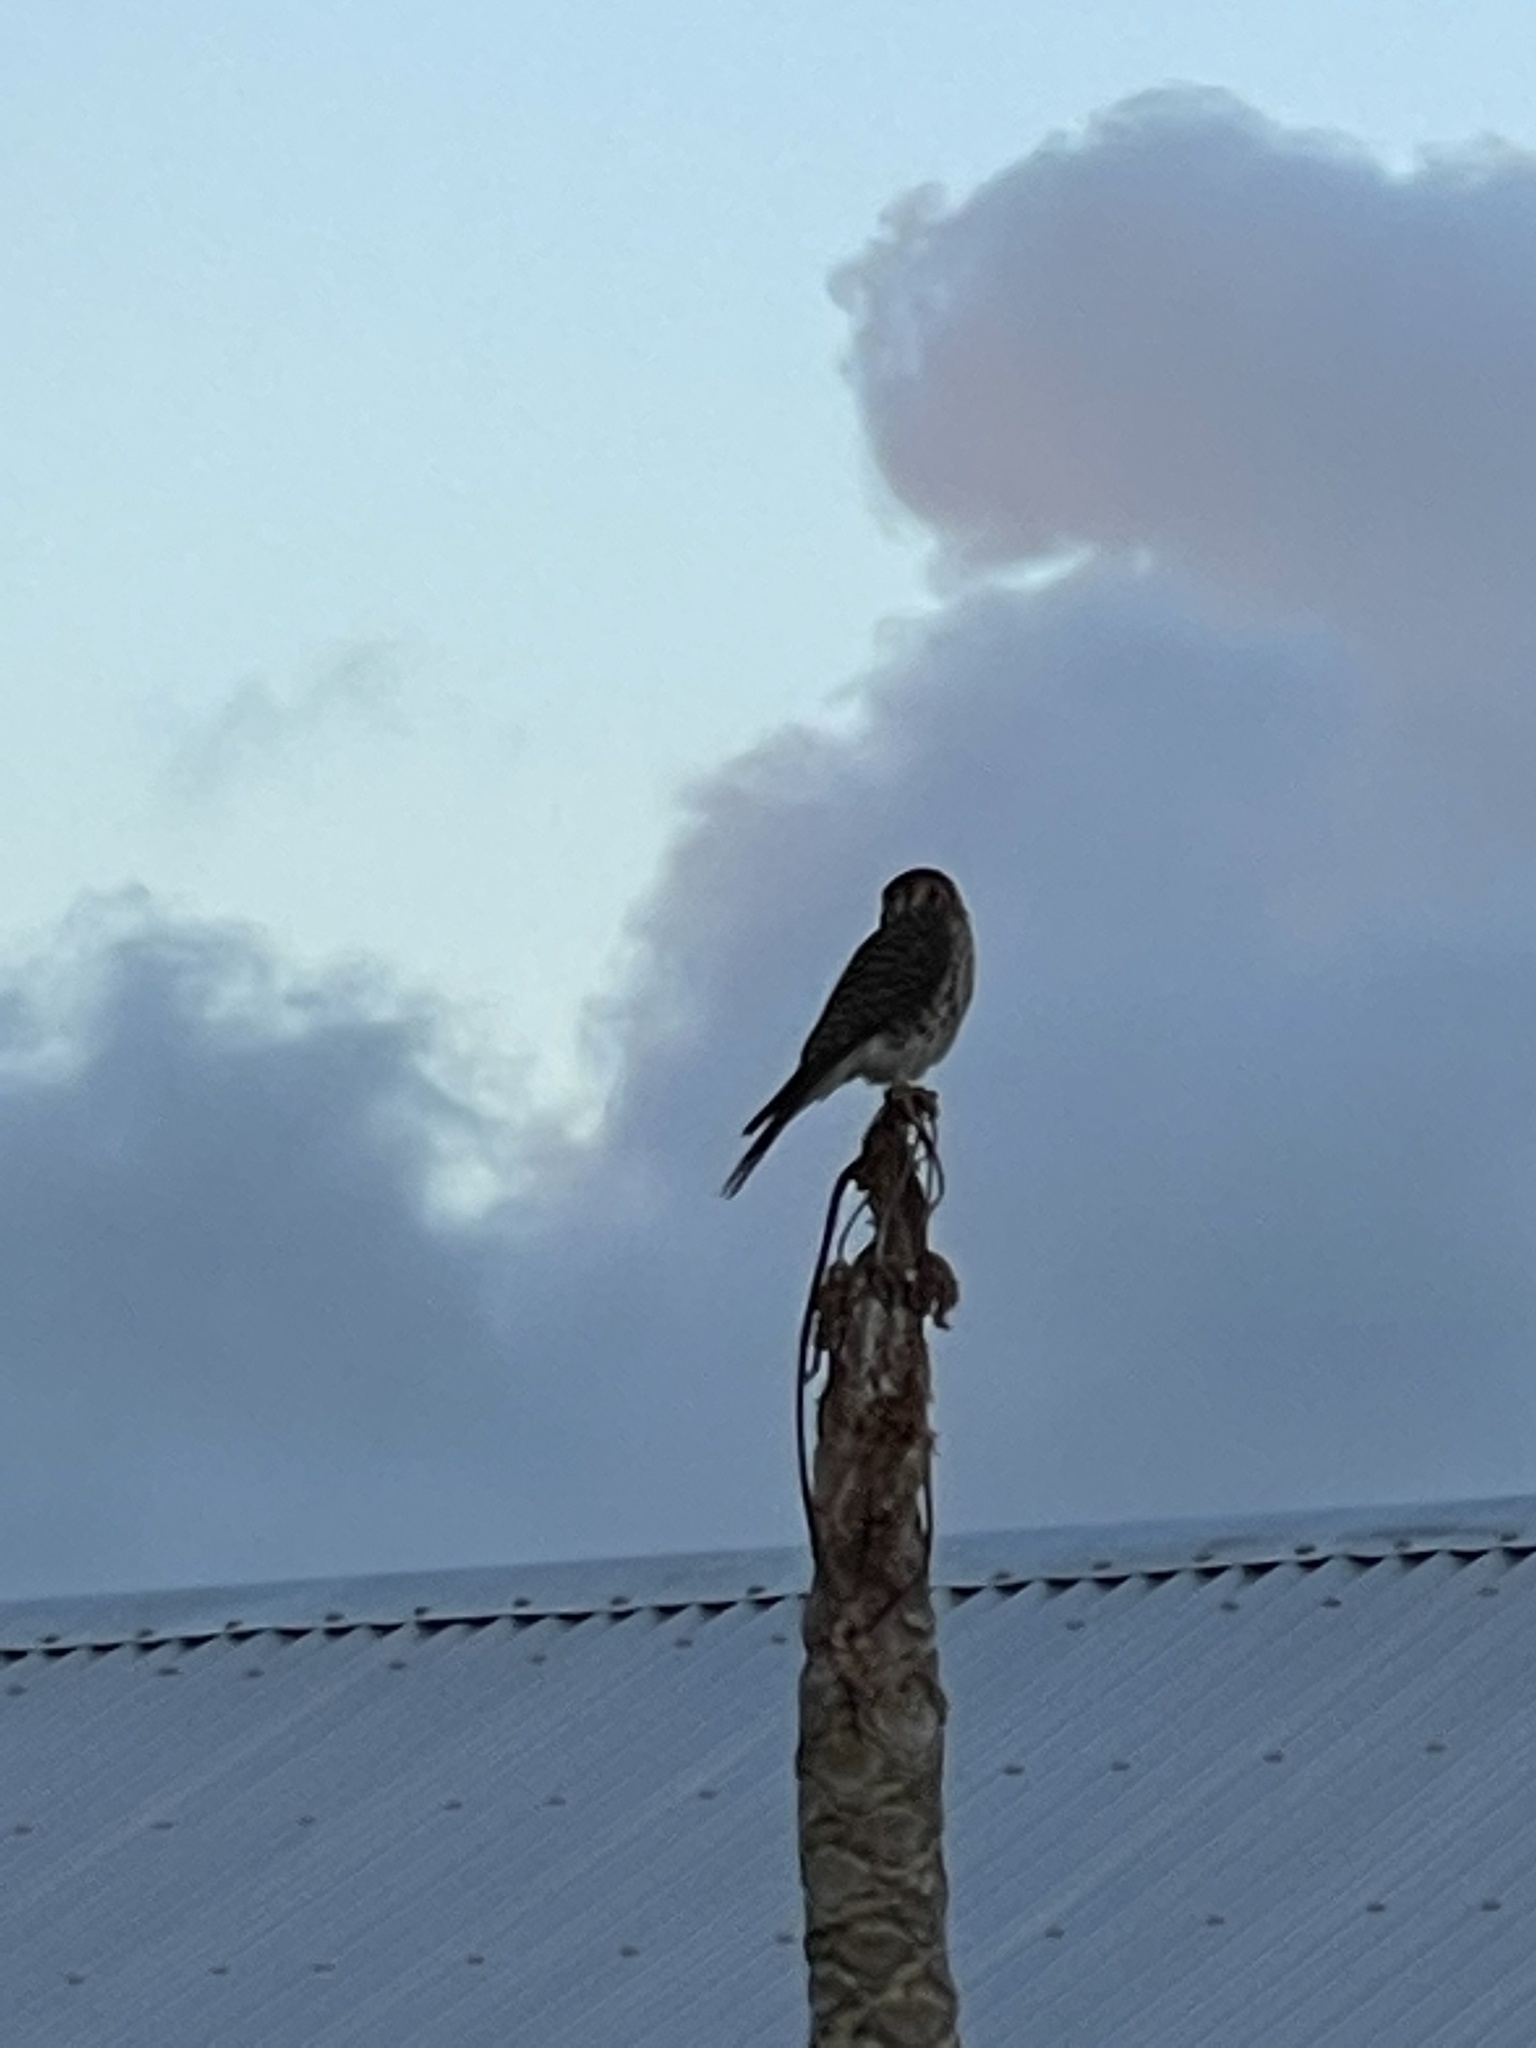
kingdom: Animalia
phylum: Chordata
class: Aves
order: Falconiformes
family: Falconidae
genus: Falco
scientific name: Falco sparverius
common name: American kestrel
